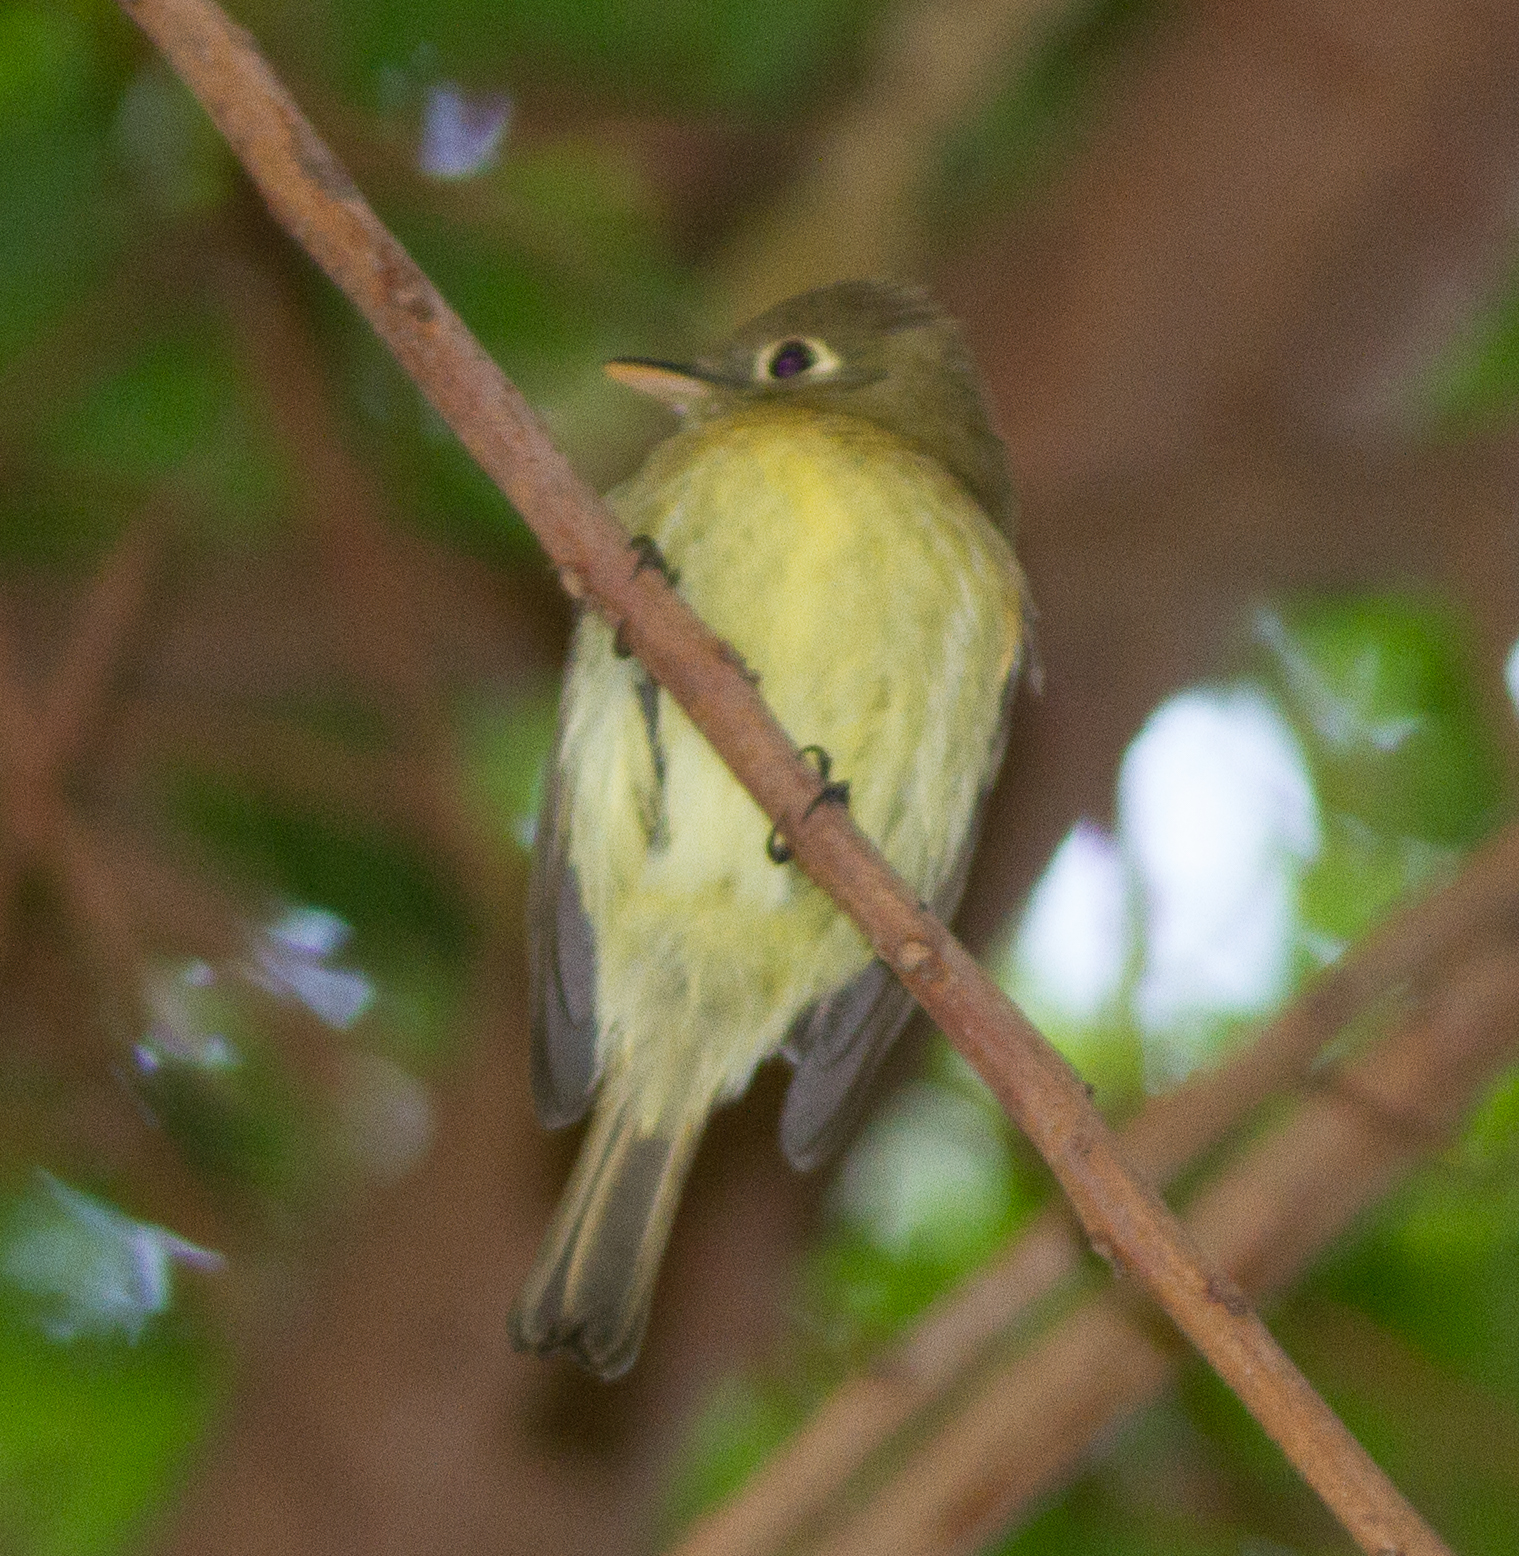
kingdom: Animalia
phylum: Chordata
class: Aves
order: Passeriformes
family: Tyrannidae
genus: Empidonax
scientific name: Empidonax difficilis
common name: Pacific-slope flycatcher
